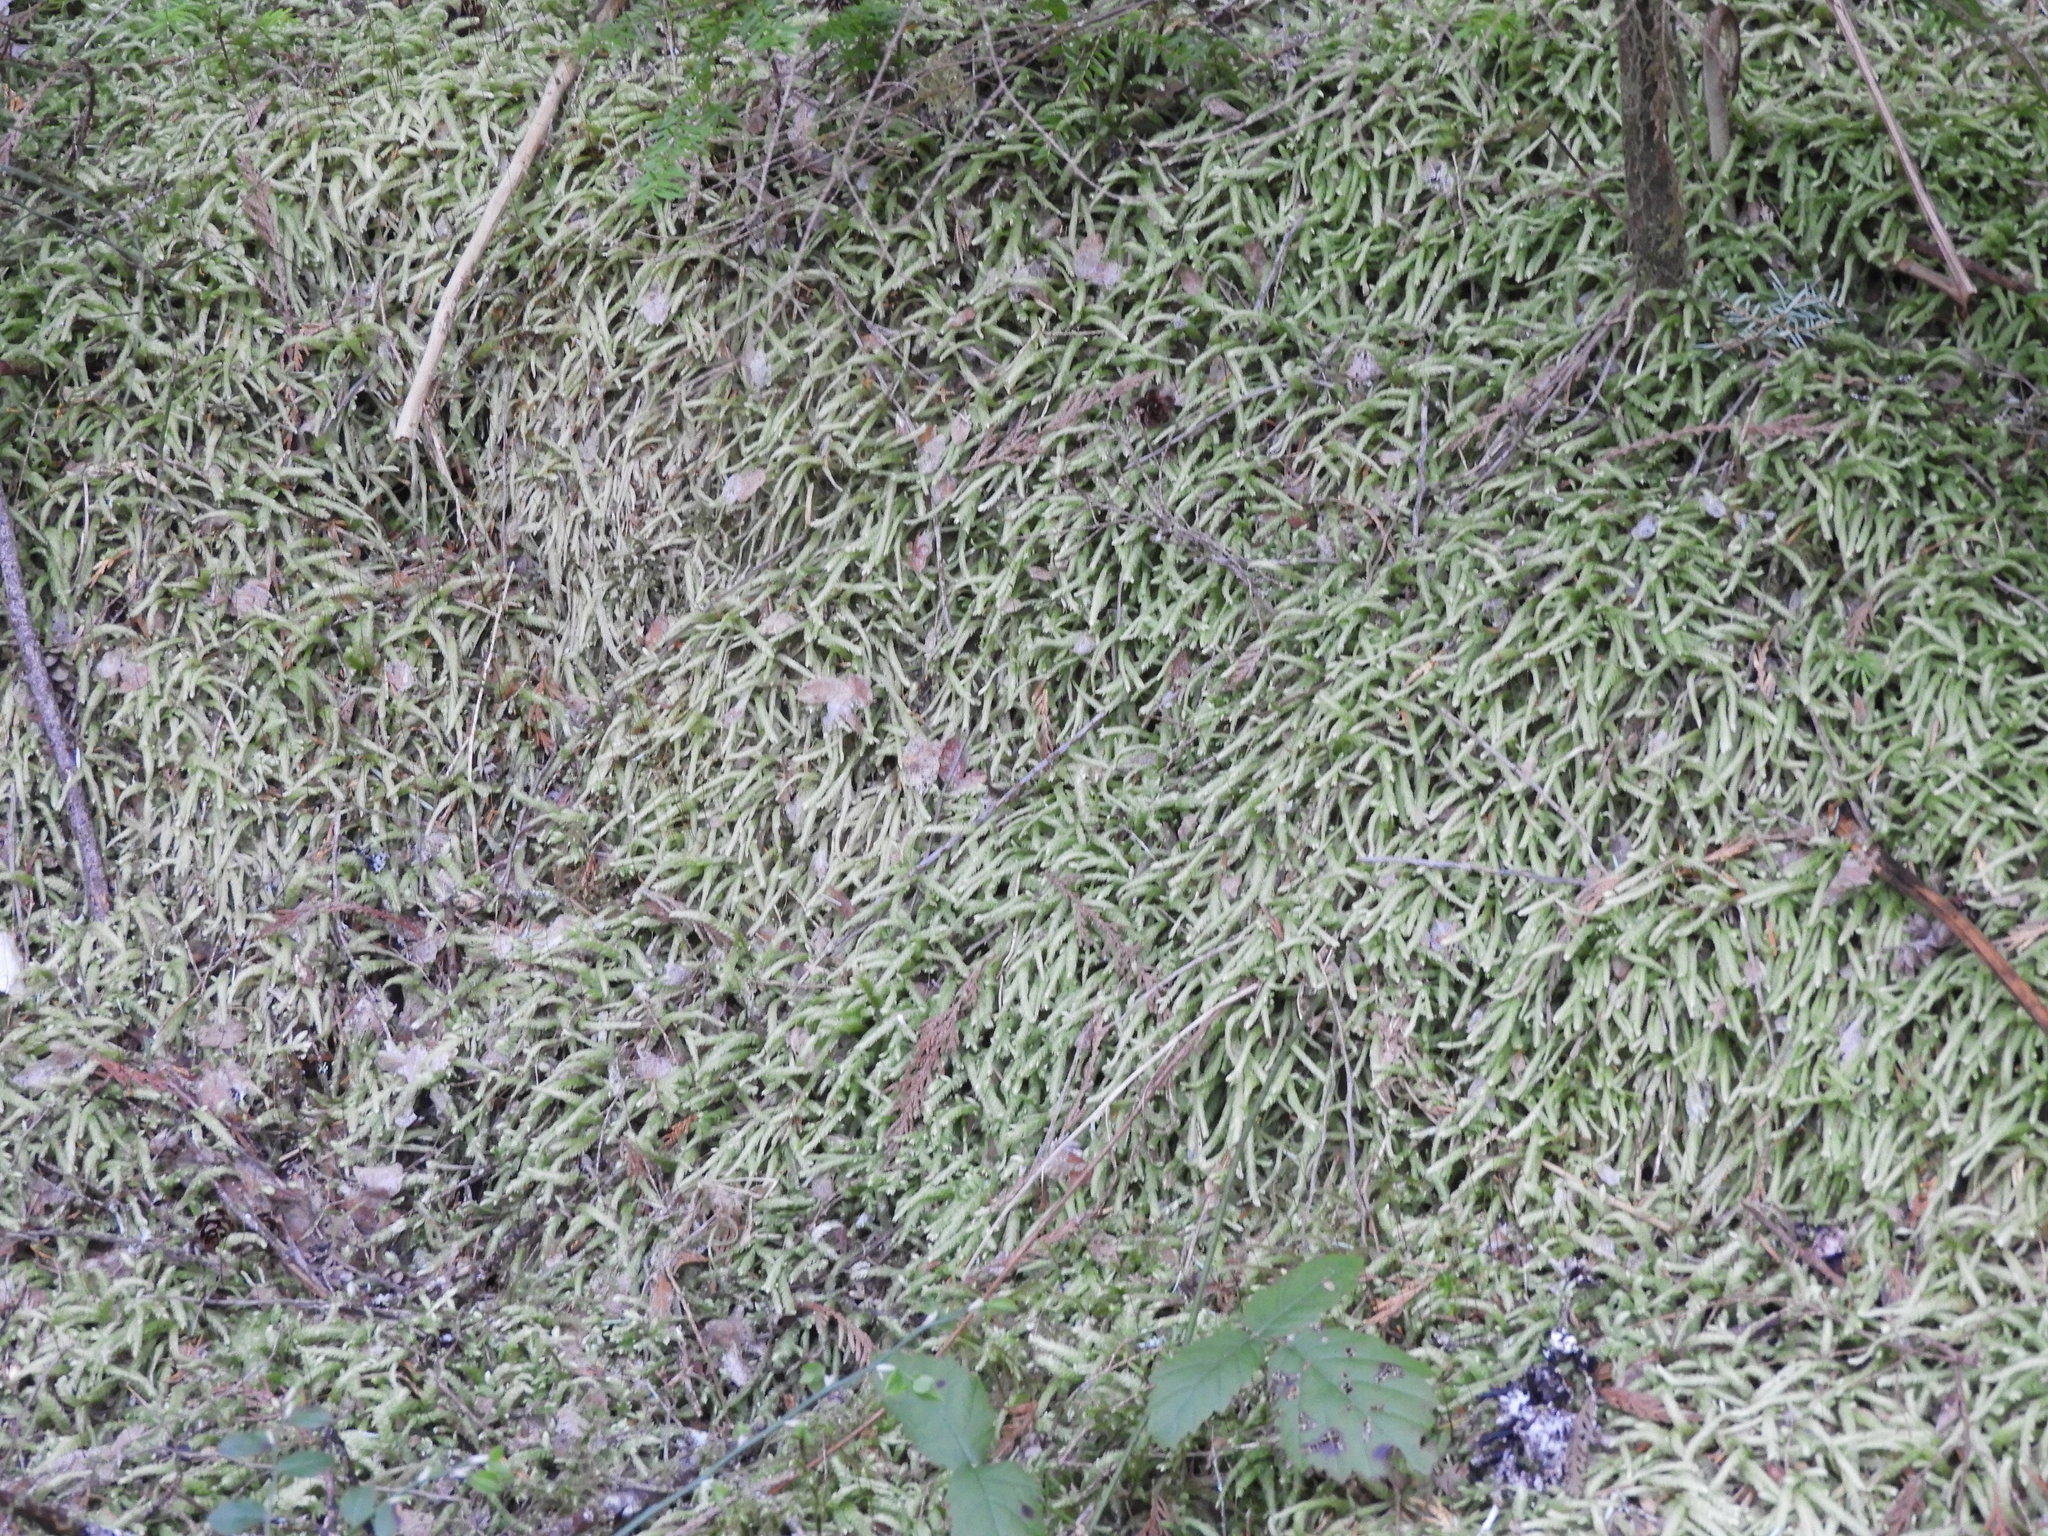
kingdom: Plantae
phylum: Bryophyta
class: Bryopsida
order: Hypnales
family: Plagiotheciaceae
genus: Plagiothecium
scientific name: Plagiothecium undulatum
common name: Waved silk-moss
